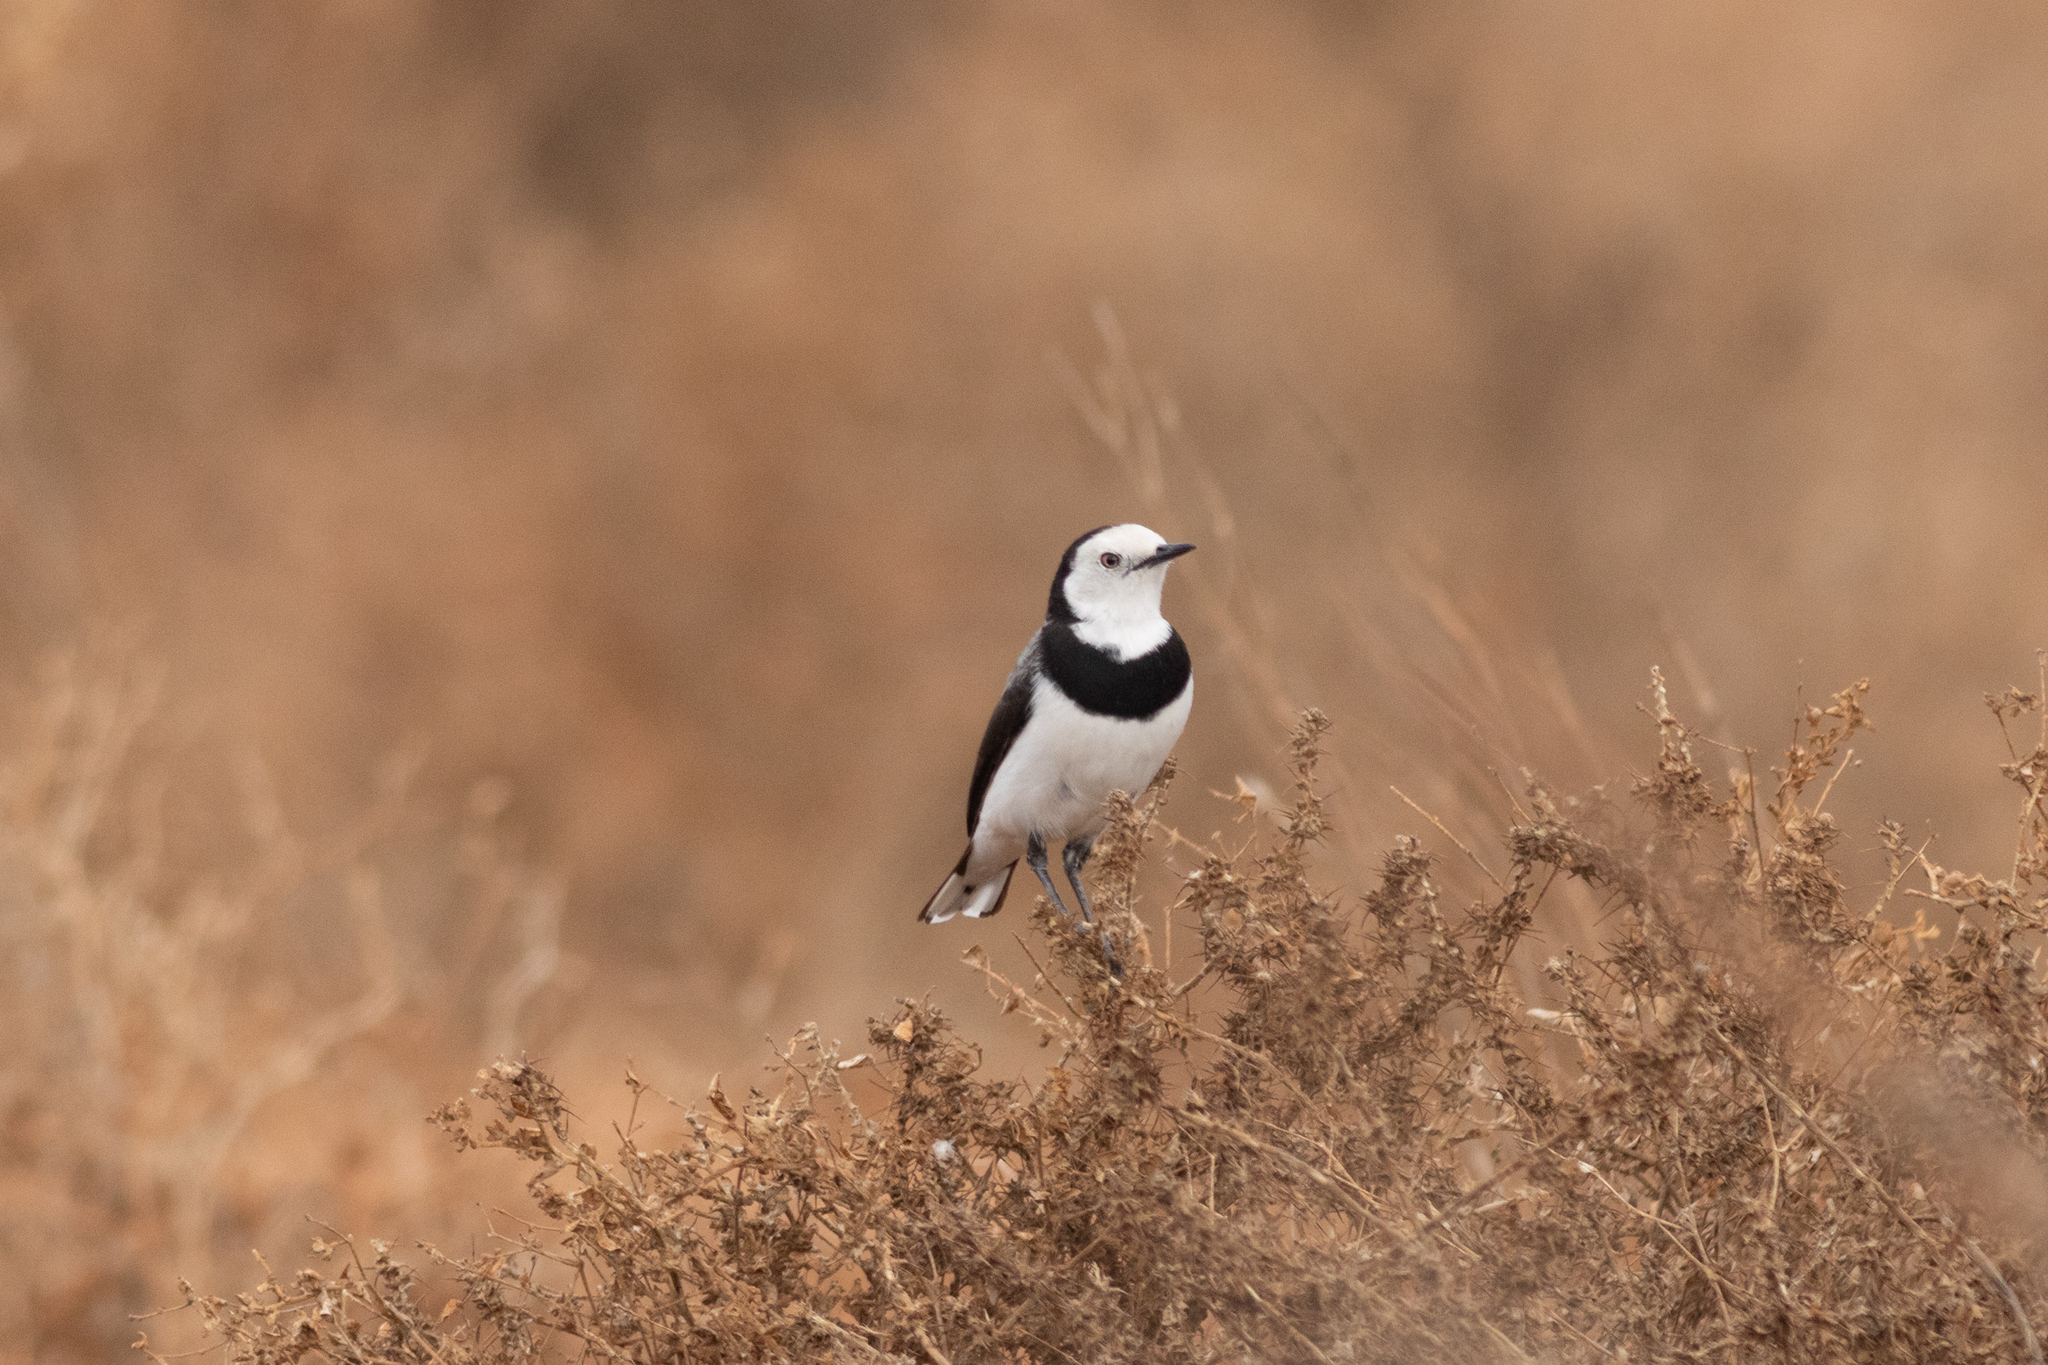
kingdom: Animalia
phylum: Chordata
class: Aves
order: Passeriformes
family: Meliphagidae
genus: Epthianura
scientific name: Epthianura albifrons
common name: White-fronted chat
